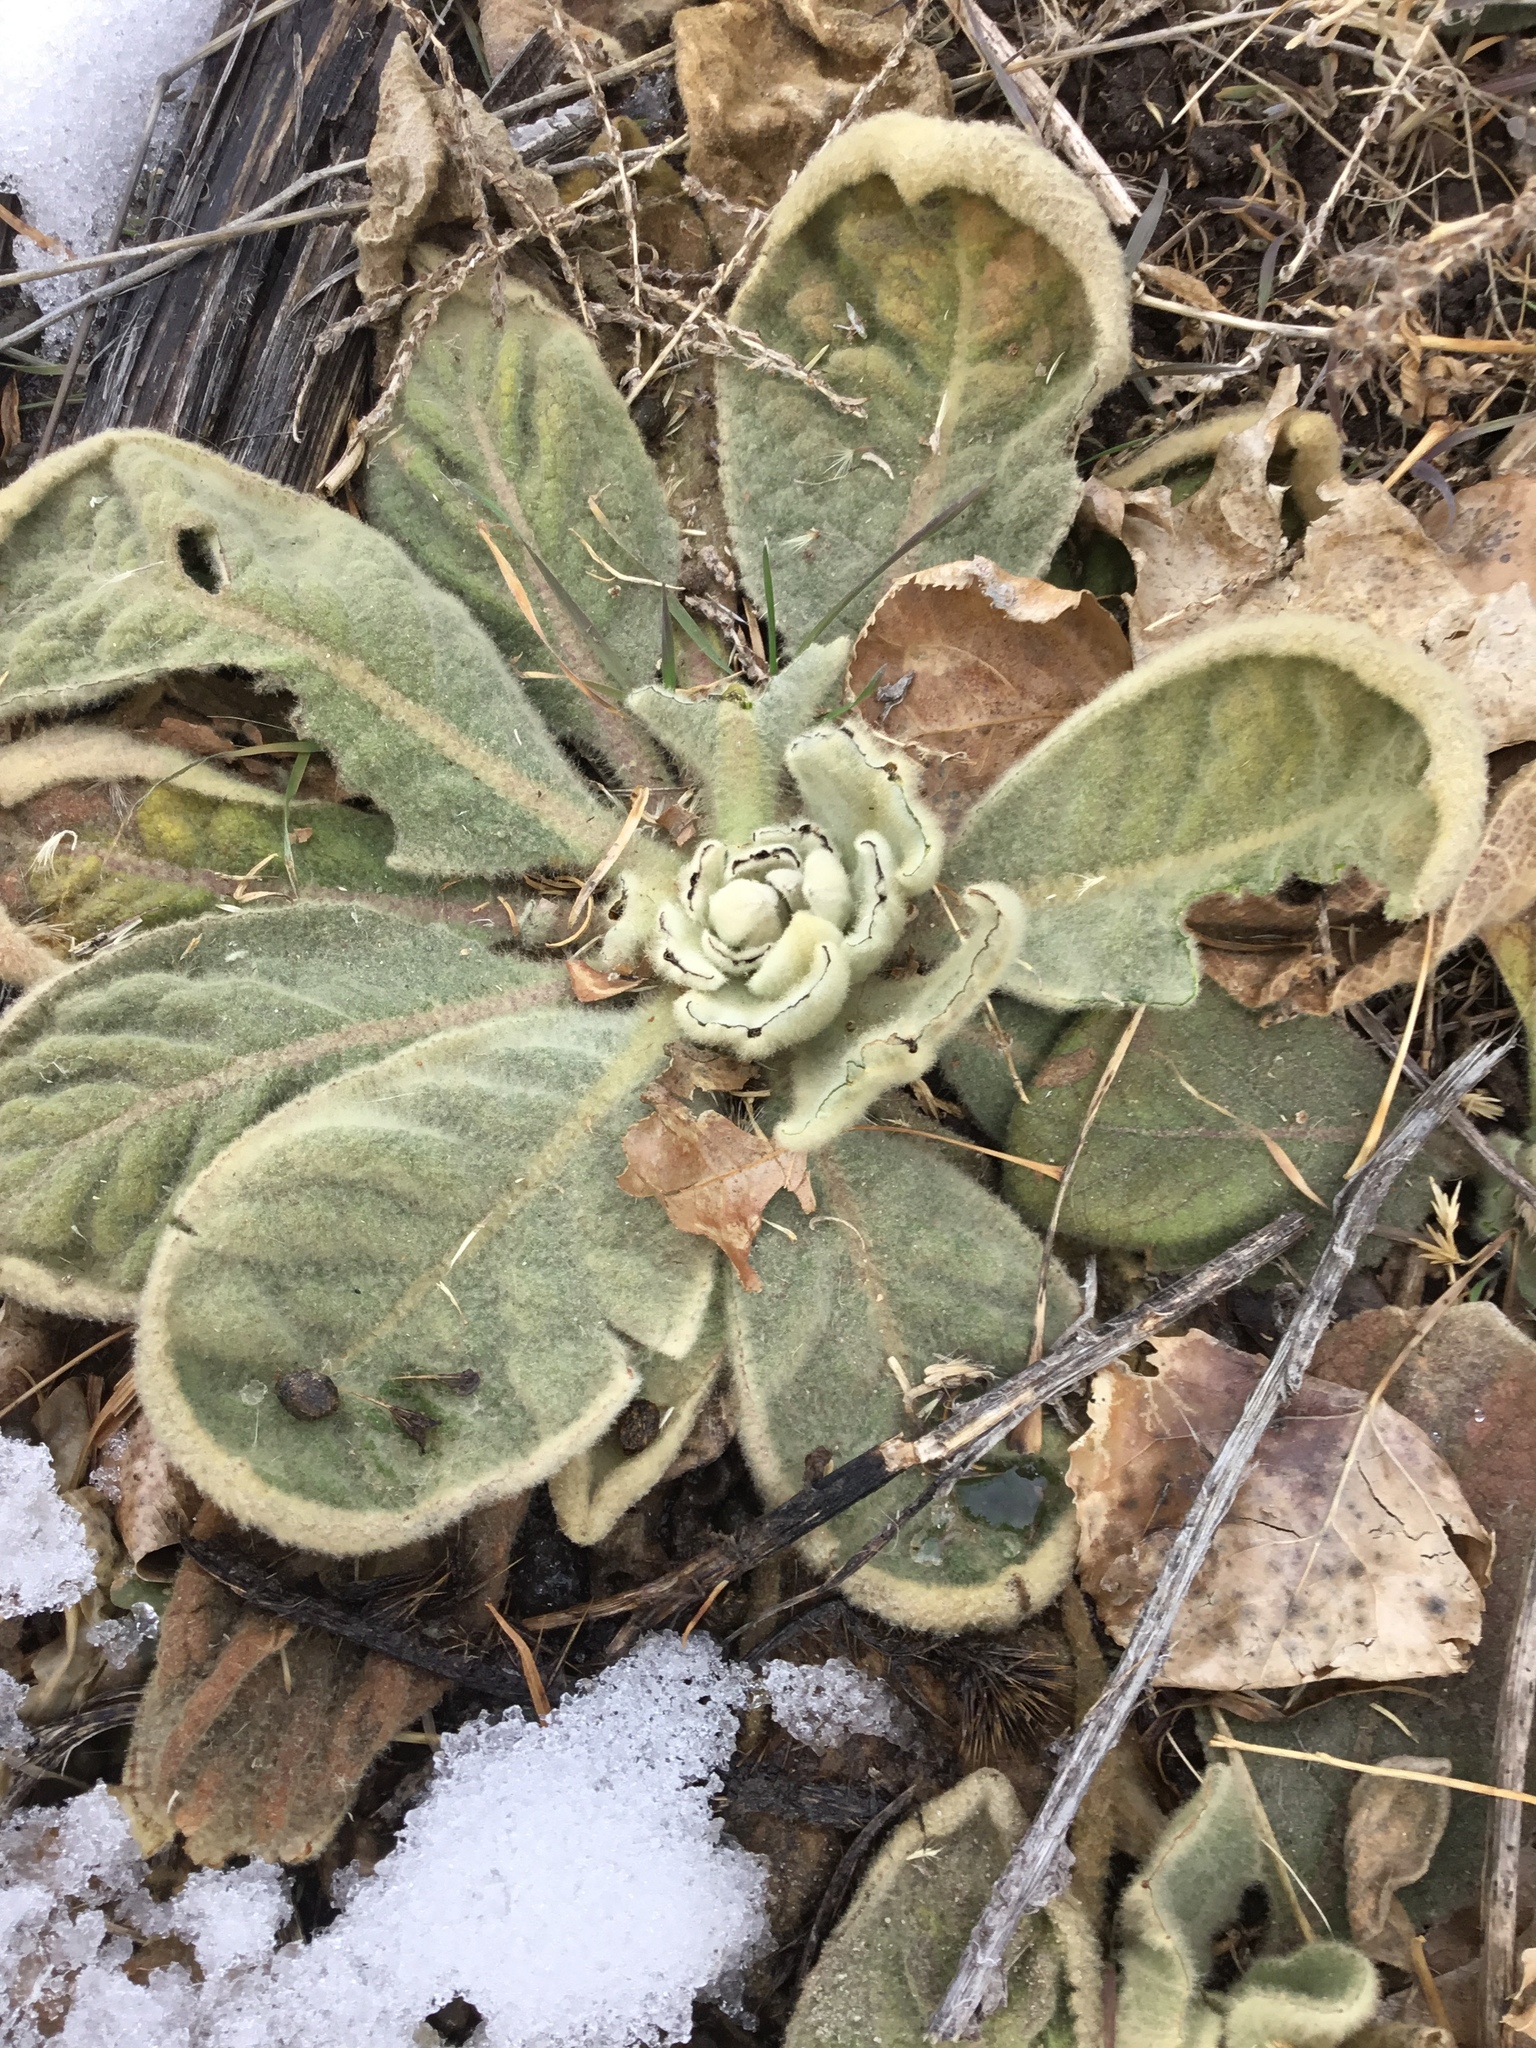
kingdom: Plantae
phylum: Tracheophyta
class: Magnoliopsida
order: Lamiales
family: Scrophulariaceae
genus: Verbascum
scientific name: Verbascum thapsus
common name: Common mullein
